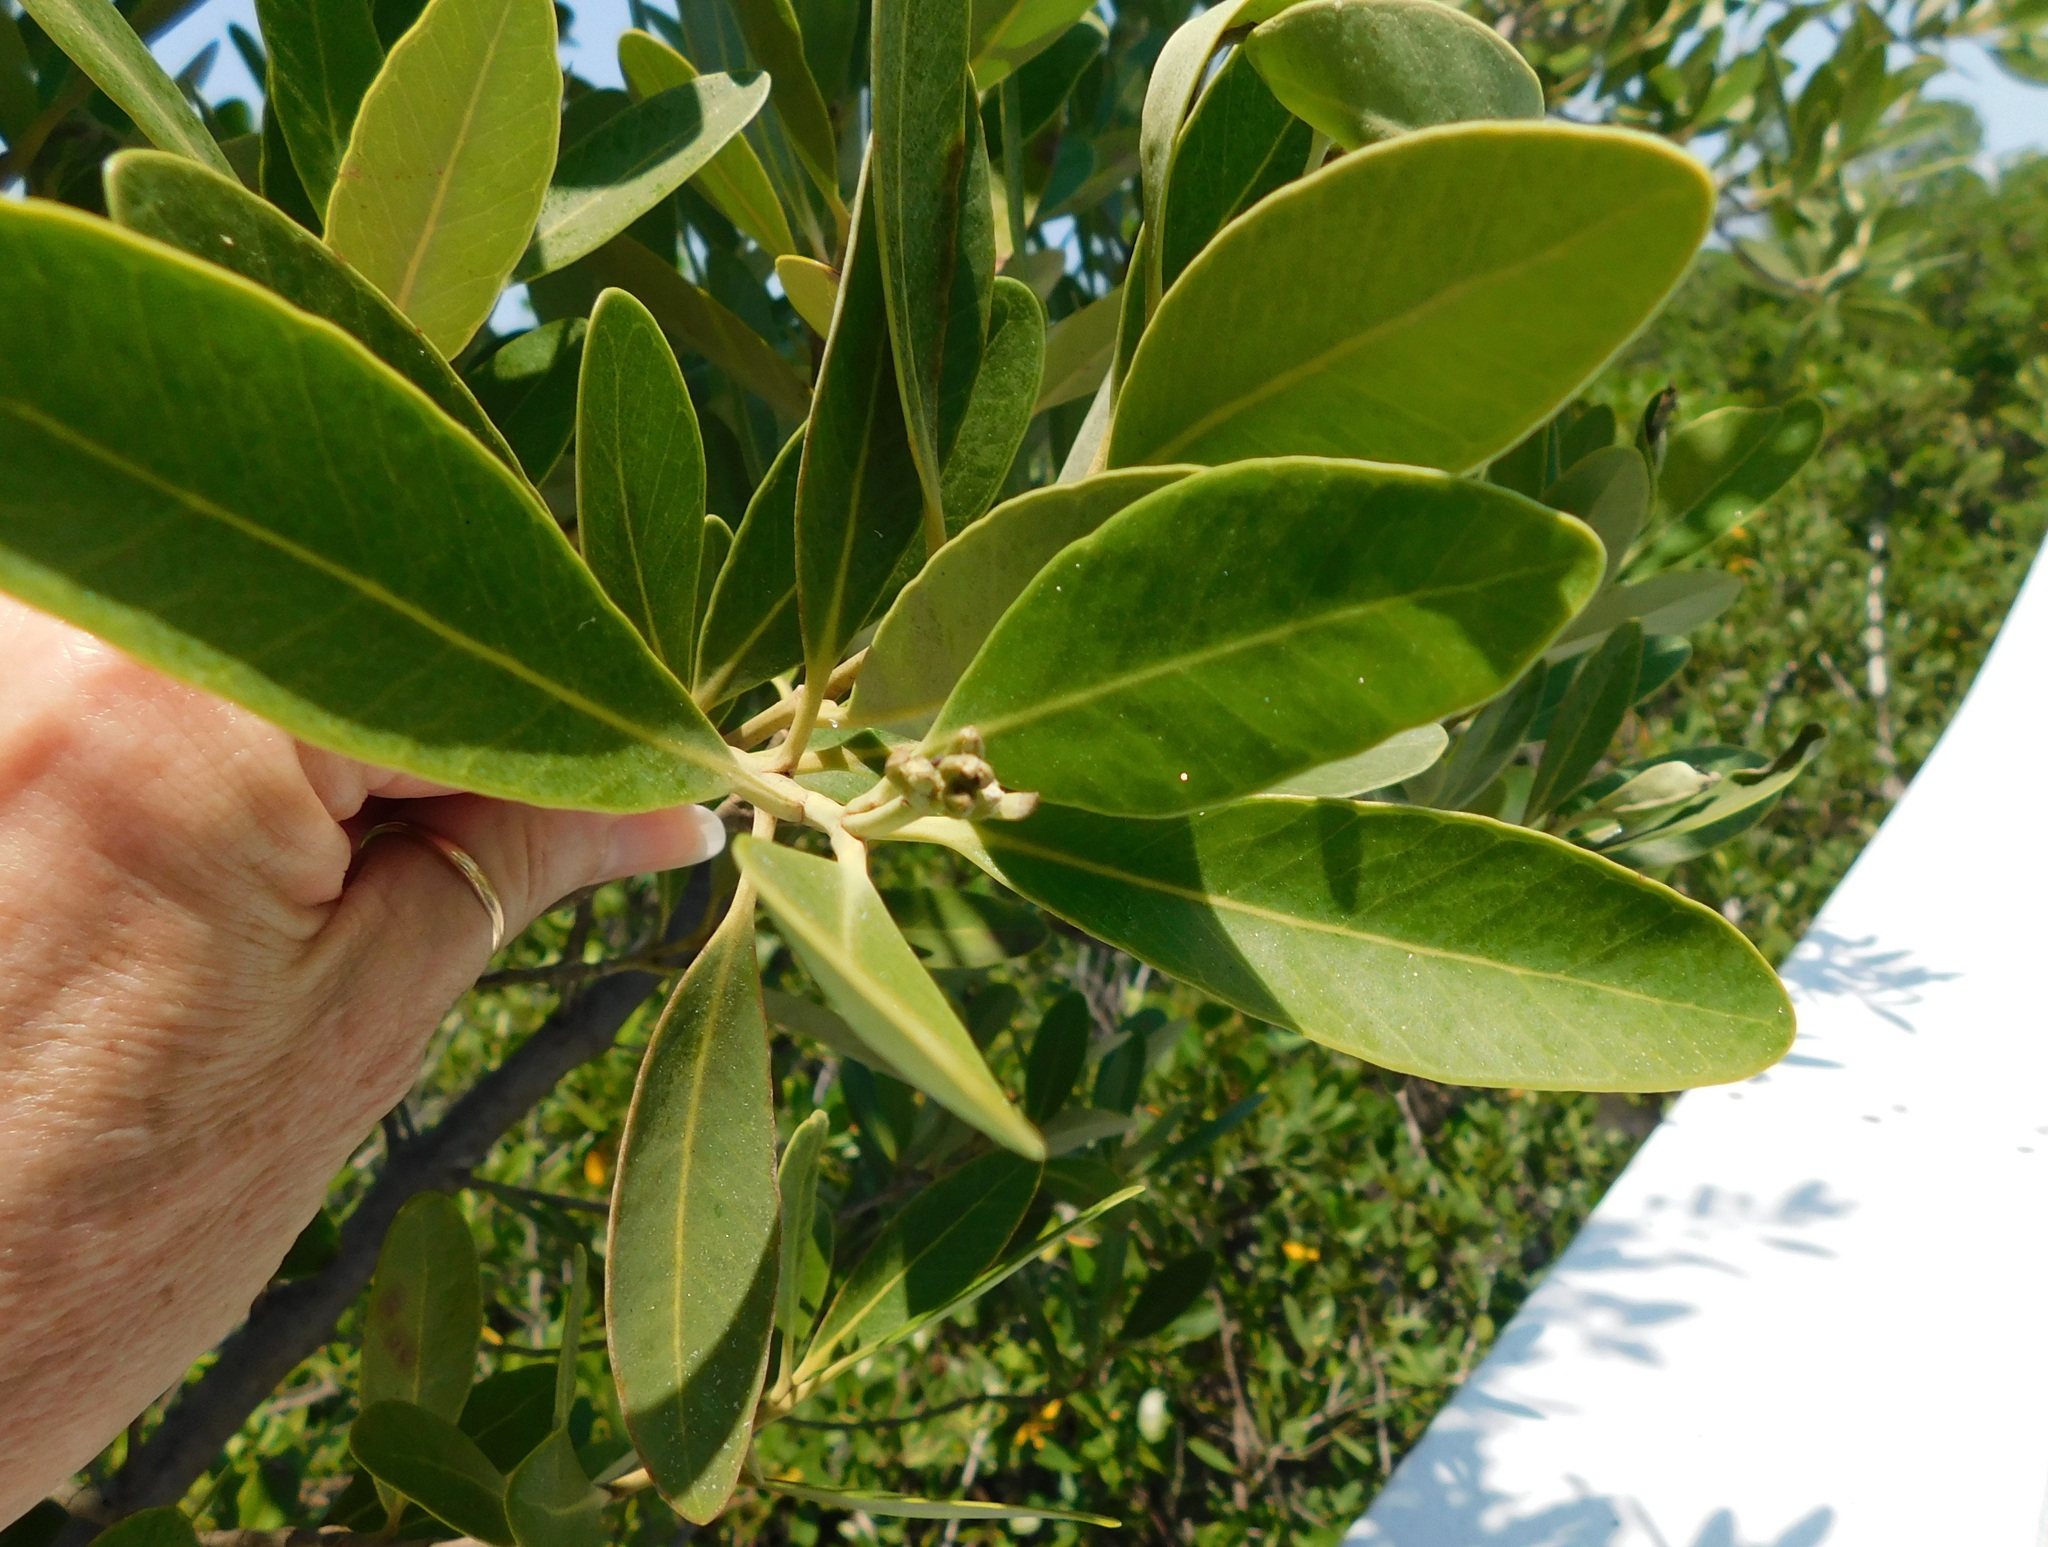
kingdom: Plantae
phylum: Tracheophyta
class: Magnoliopsida
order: Lamiales
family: Acanthaceae
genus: Avicennia
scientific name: Avicennia germinans
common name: Black mangrove
